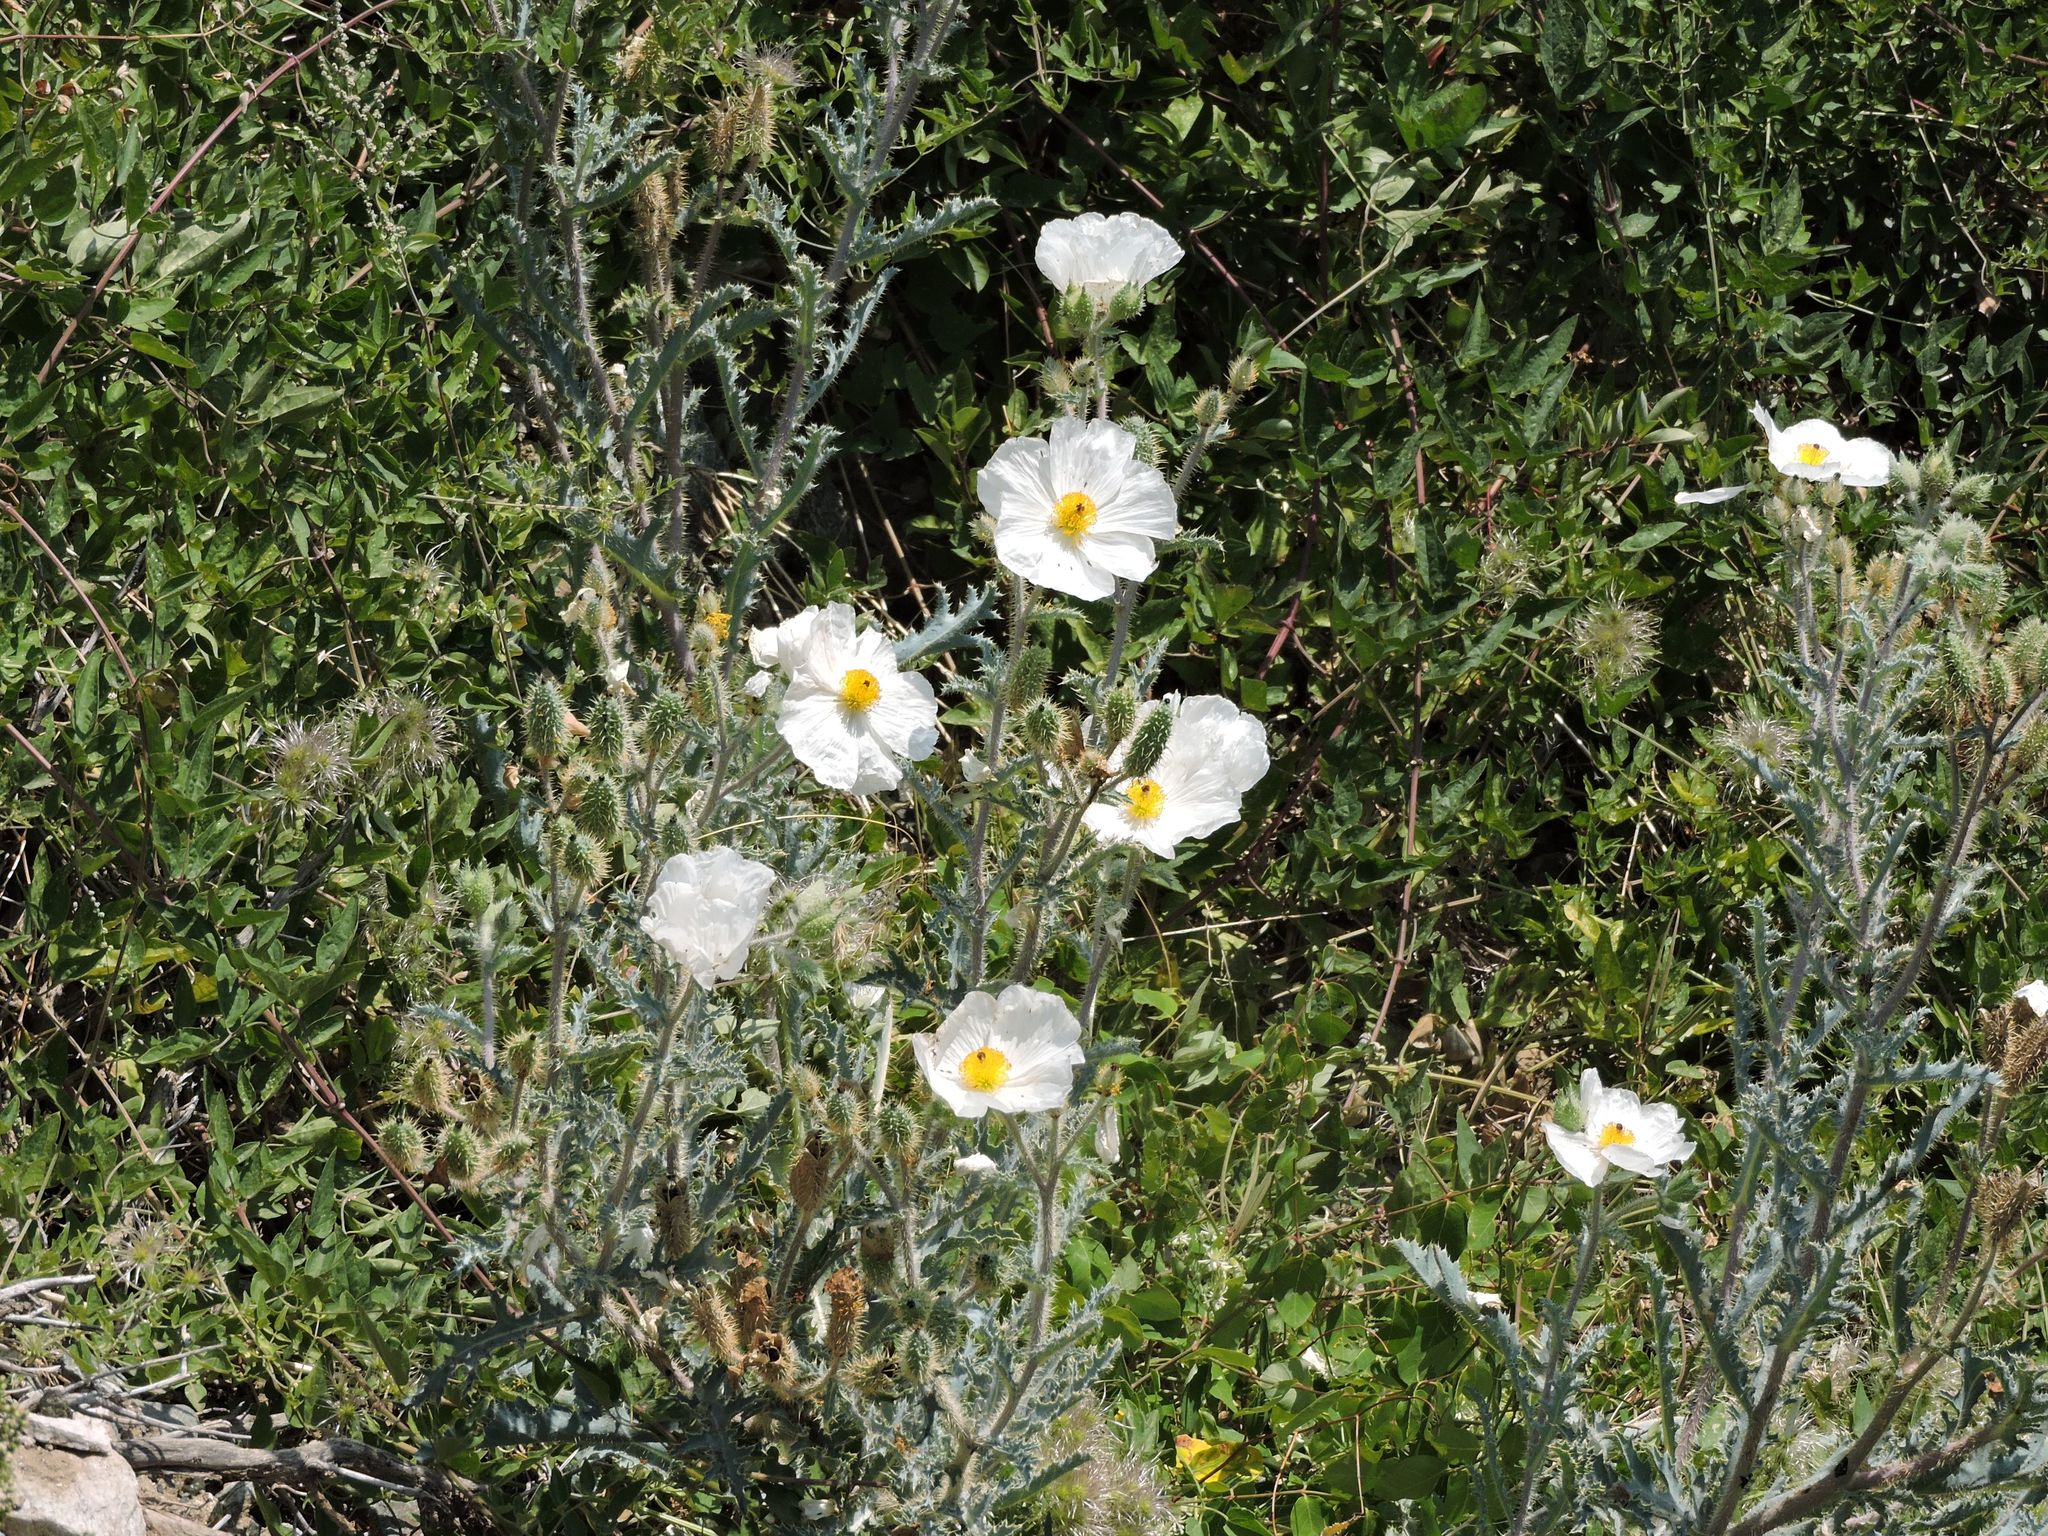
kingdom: Plantae
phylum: Tracheophyta
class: Magnoliopsida
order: Ranunculales
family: Papaveraceae
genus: Argemone
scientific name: Argemone munita
